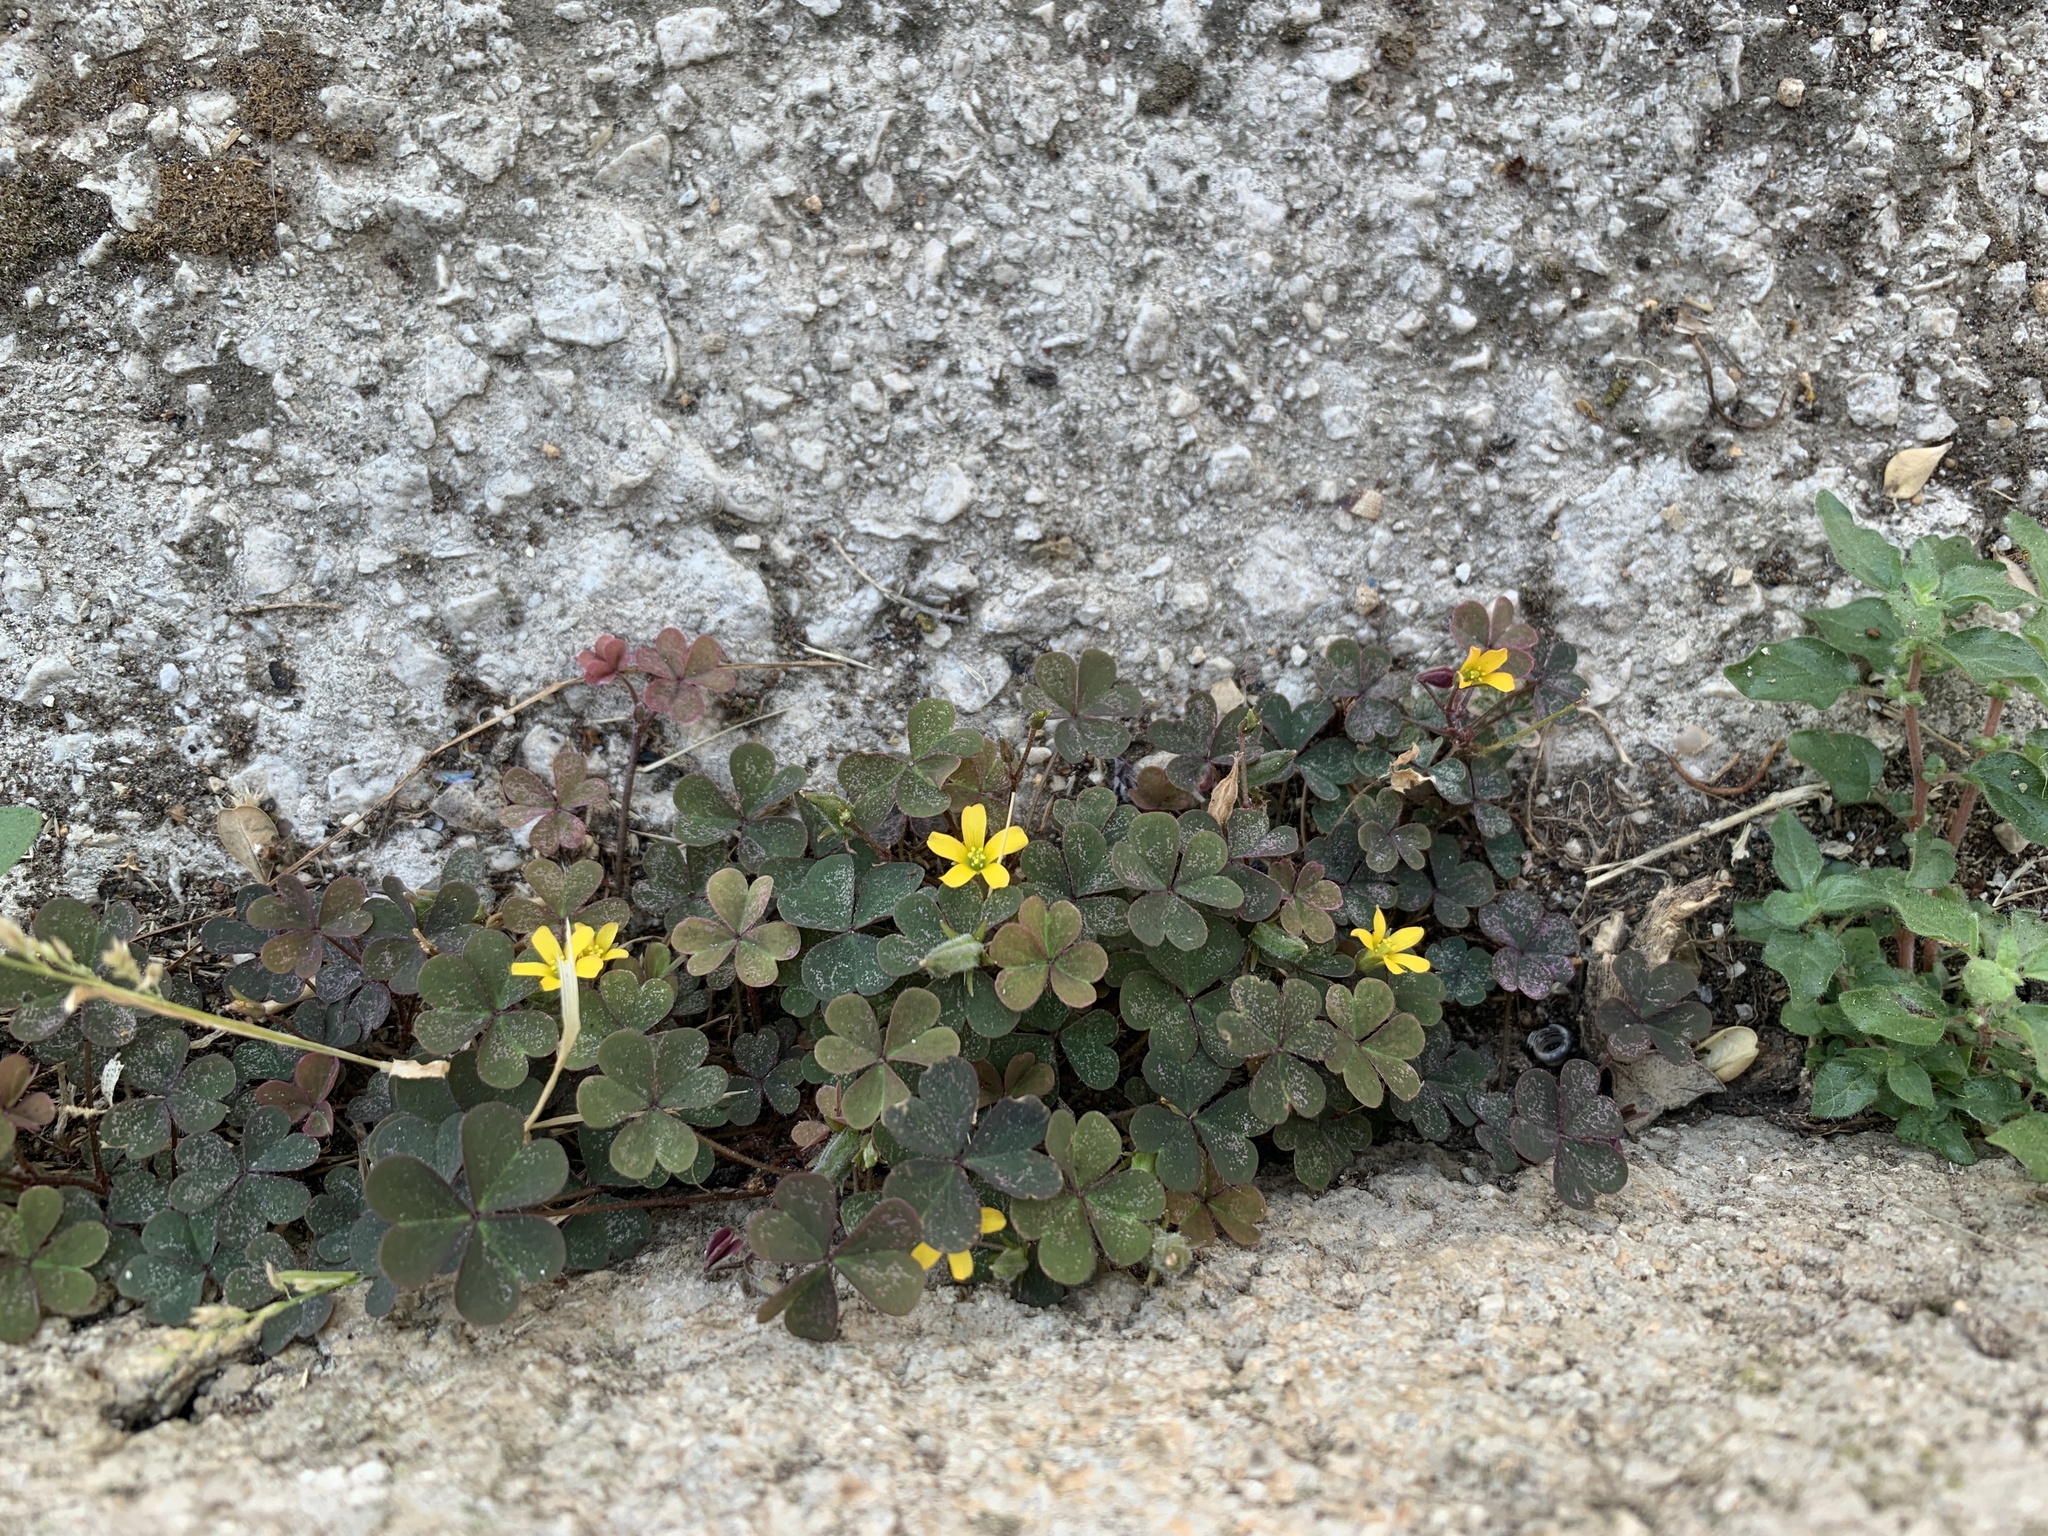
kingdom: Plantae
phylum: Tracheophyta
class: Magnoliopsida
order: Oxalidales
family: Oxalidaceae
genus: Oxalis
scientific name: Oxalis corniculata
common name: Procumbent yellow-sorrel
